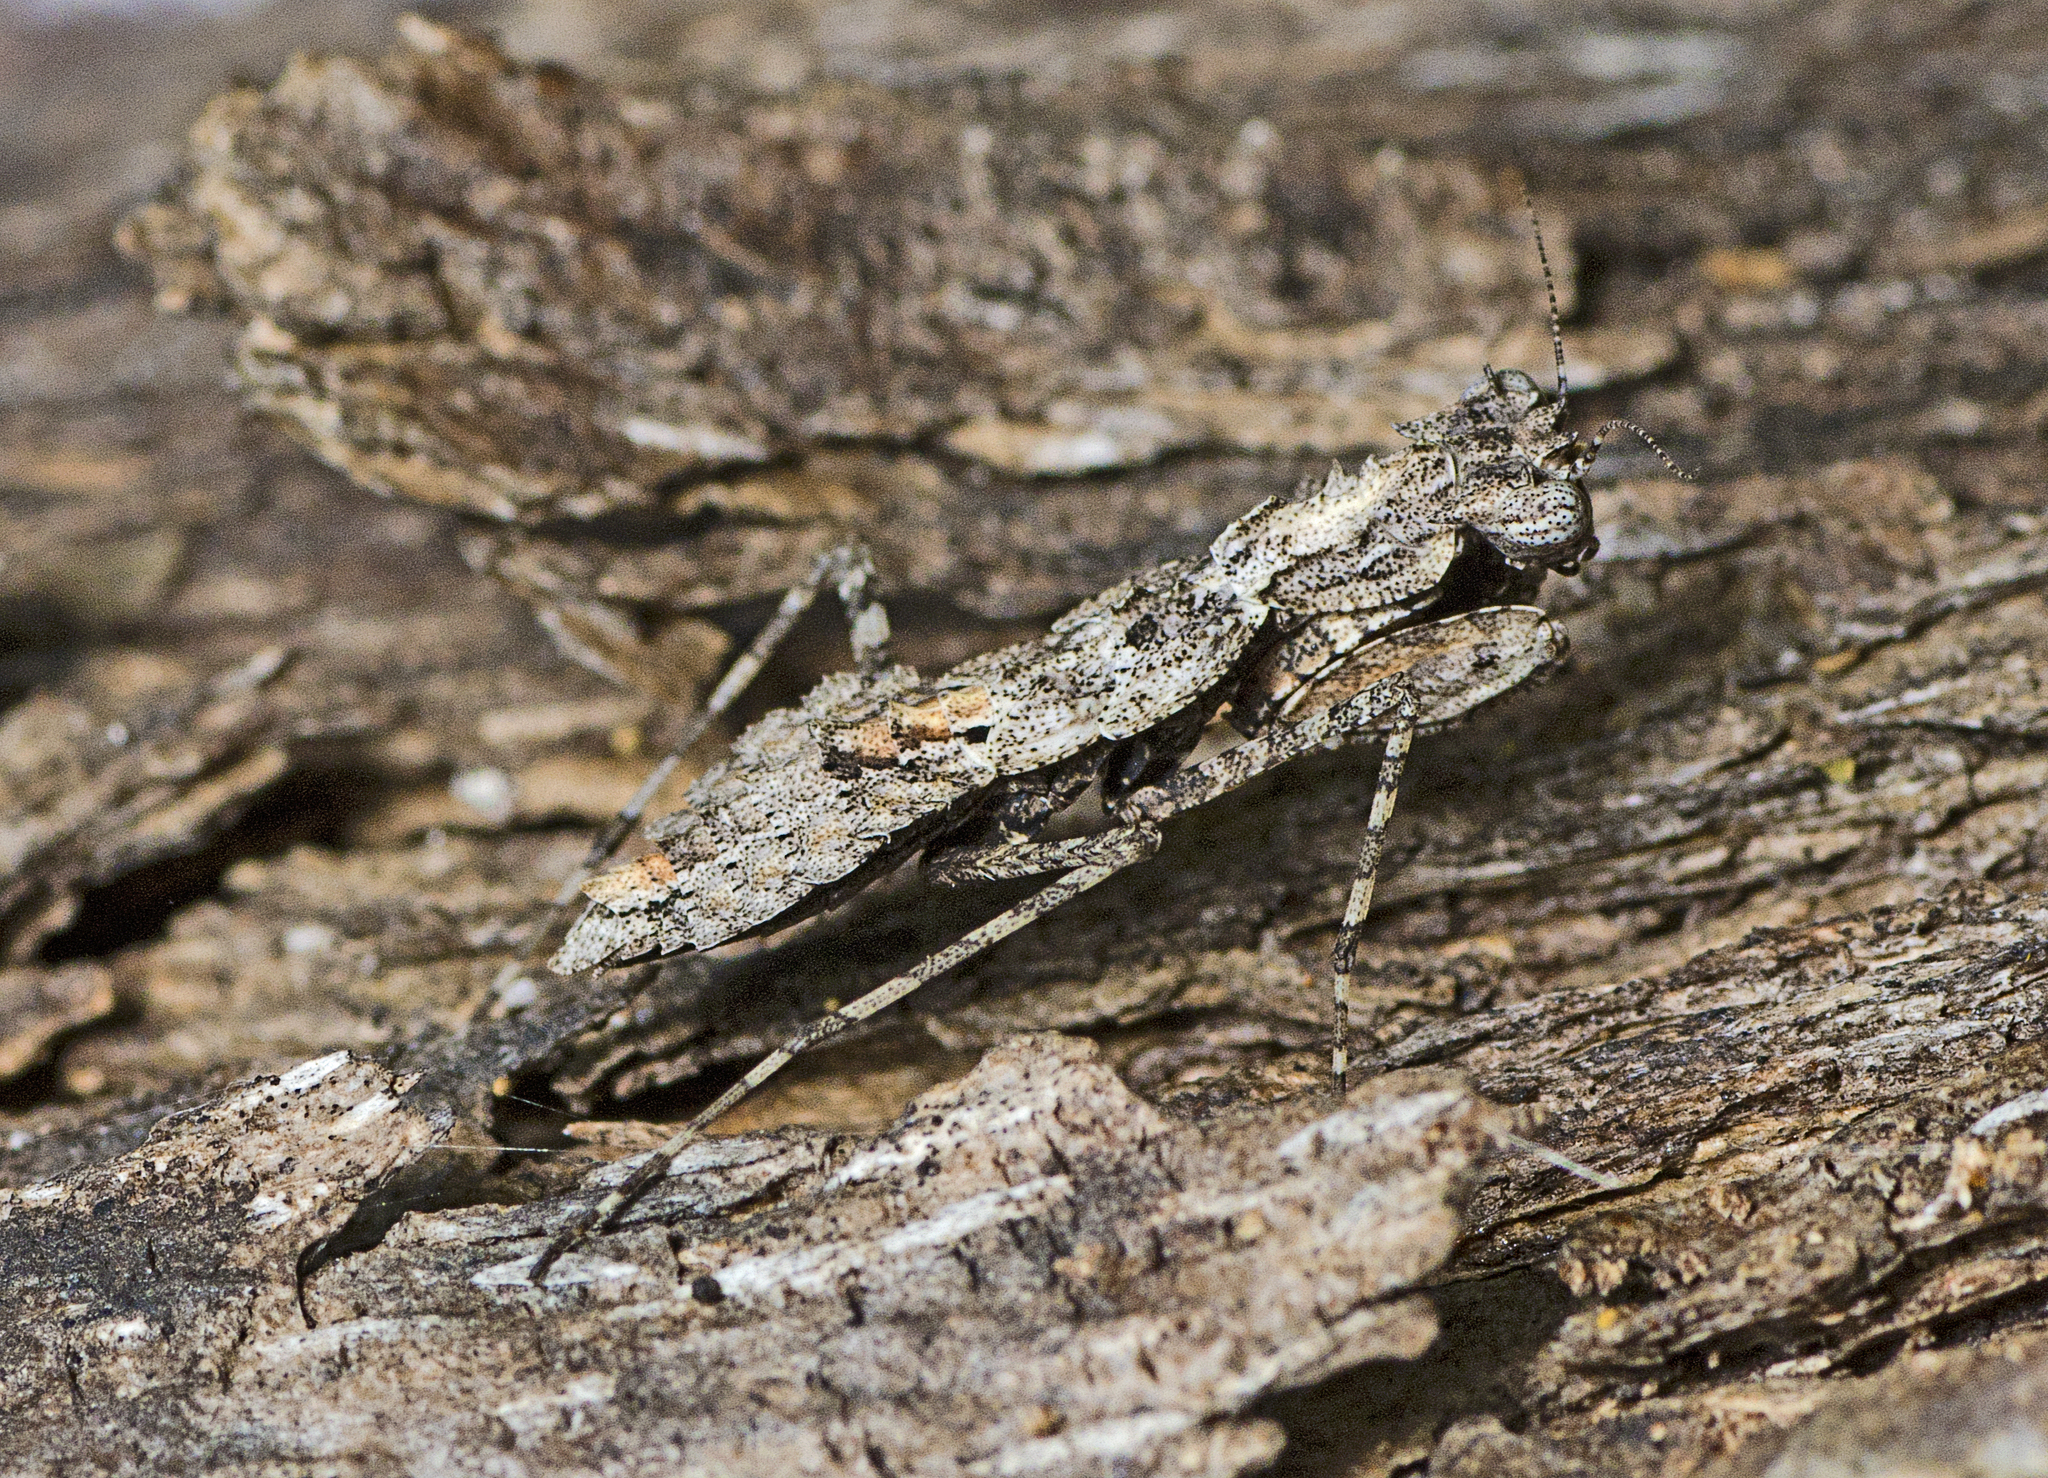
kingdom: Animalia
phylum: Arthropoda
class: Insecta
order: Mantodea
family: Nanomantidae
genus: Metoxypilus
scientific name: Metoxypilus lobifrons
